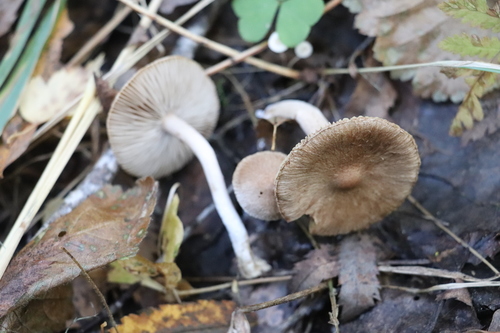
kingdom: Fungi
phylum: Basidiomycota
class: Agaricomycetes
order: Agaricales
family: Inocybaceae
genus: Inocybe
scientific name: Inocybe
